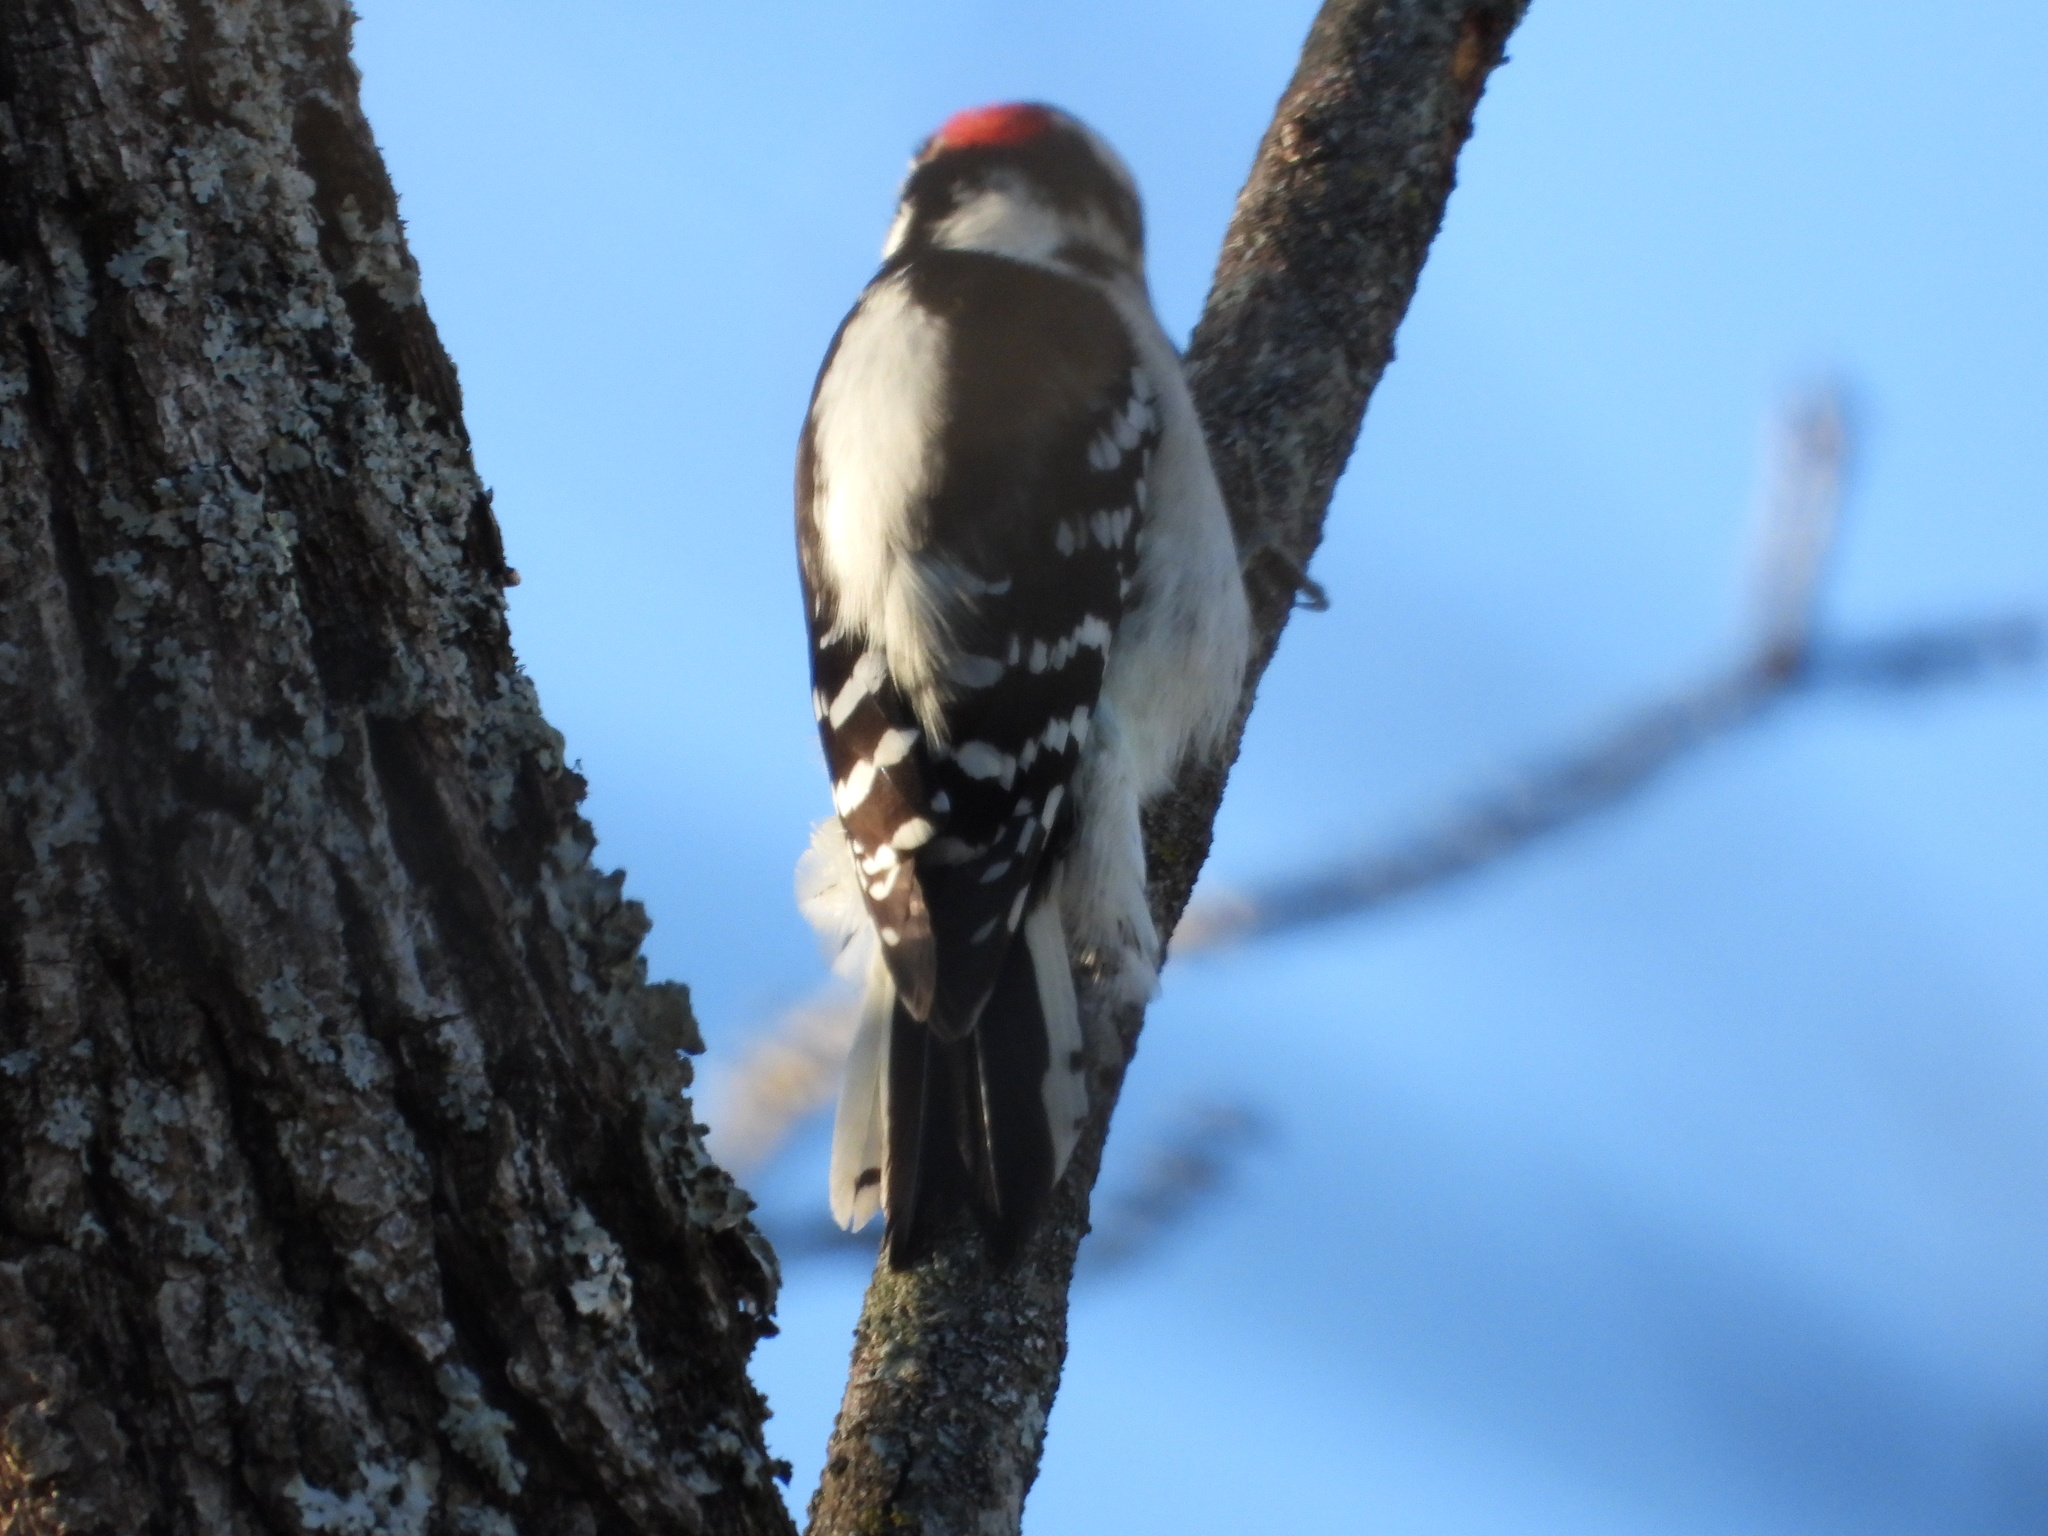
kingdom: Animalia
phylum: Chordata
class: Aves
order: Piciformes
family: Picidae
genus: Dryobates
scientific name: Dryobates pubescens
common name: Downy woodpecker
